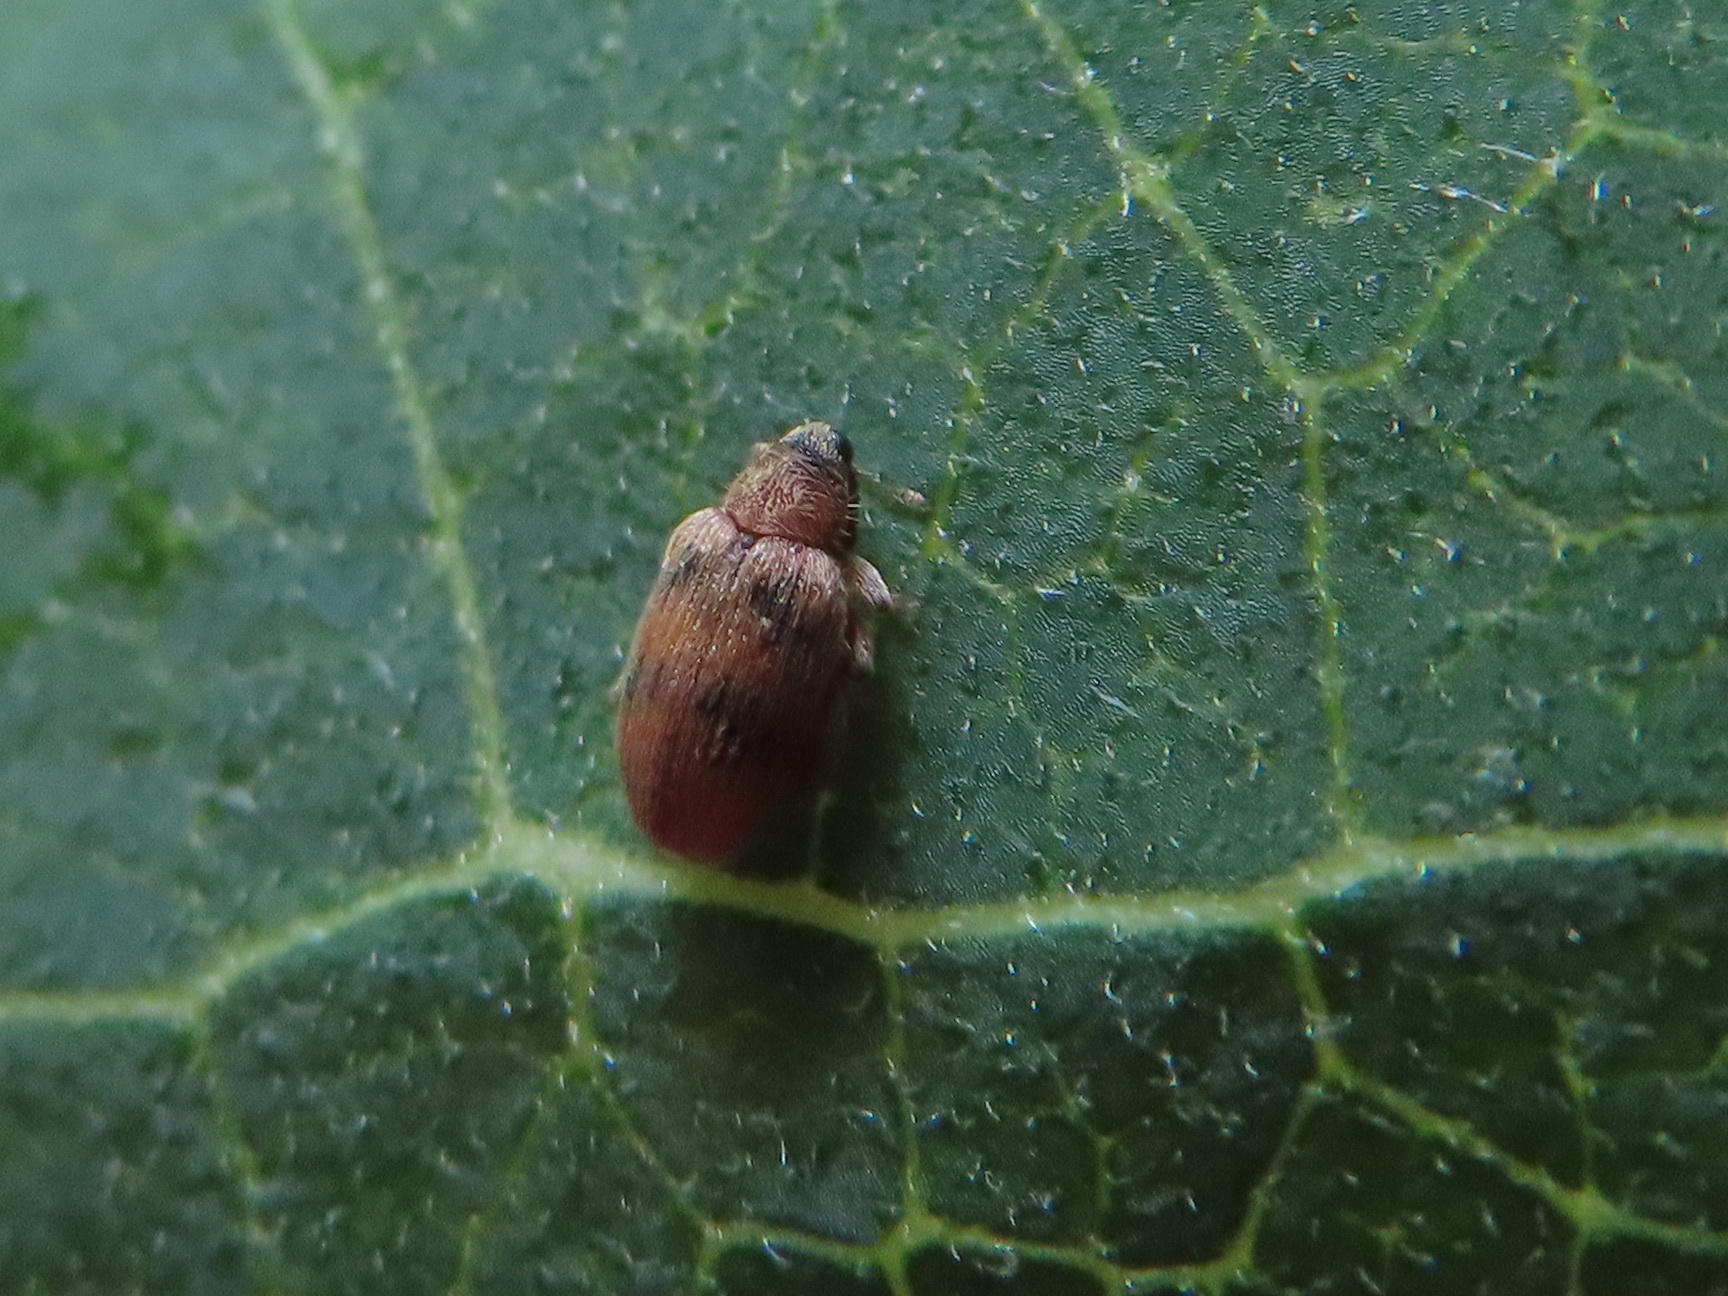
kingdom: Animalia
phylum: Arthropoda
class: Insecta
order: Coleoptera
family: Curculionidae
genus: Orchestes
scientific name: Orchestes steppensis
